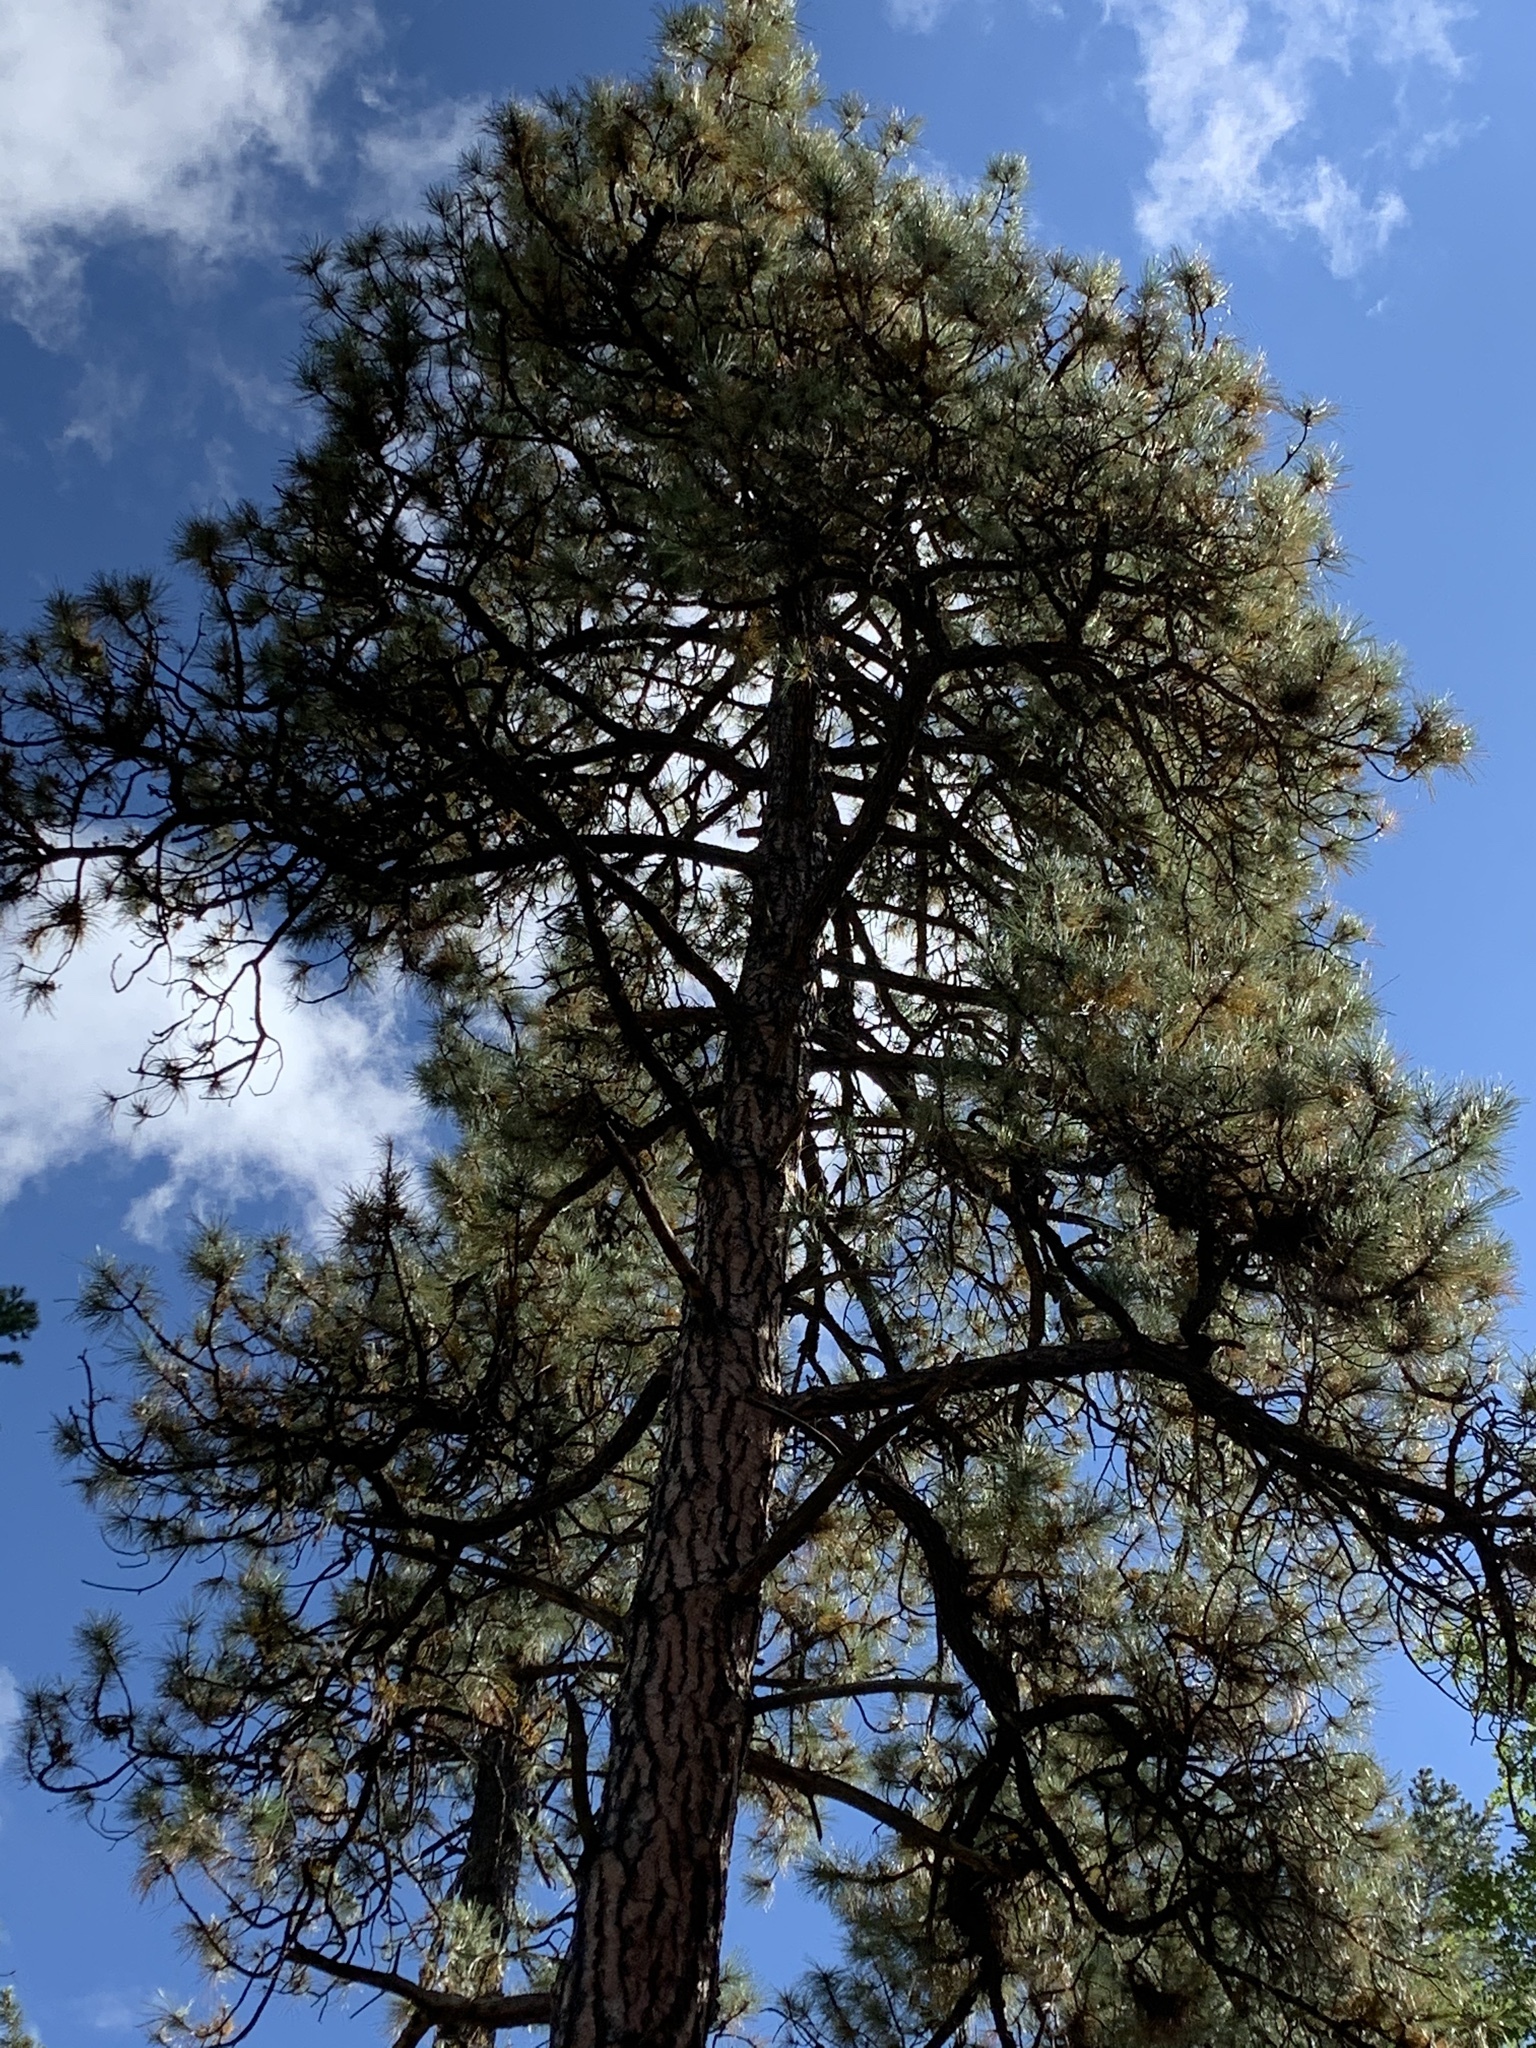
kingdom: Plantae
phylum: Tracheophyta
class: Pinopsida
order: Pinales
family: Pinaceae
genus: Pinus
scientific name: Pinus ponderosa
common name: Western yellow-pine
